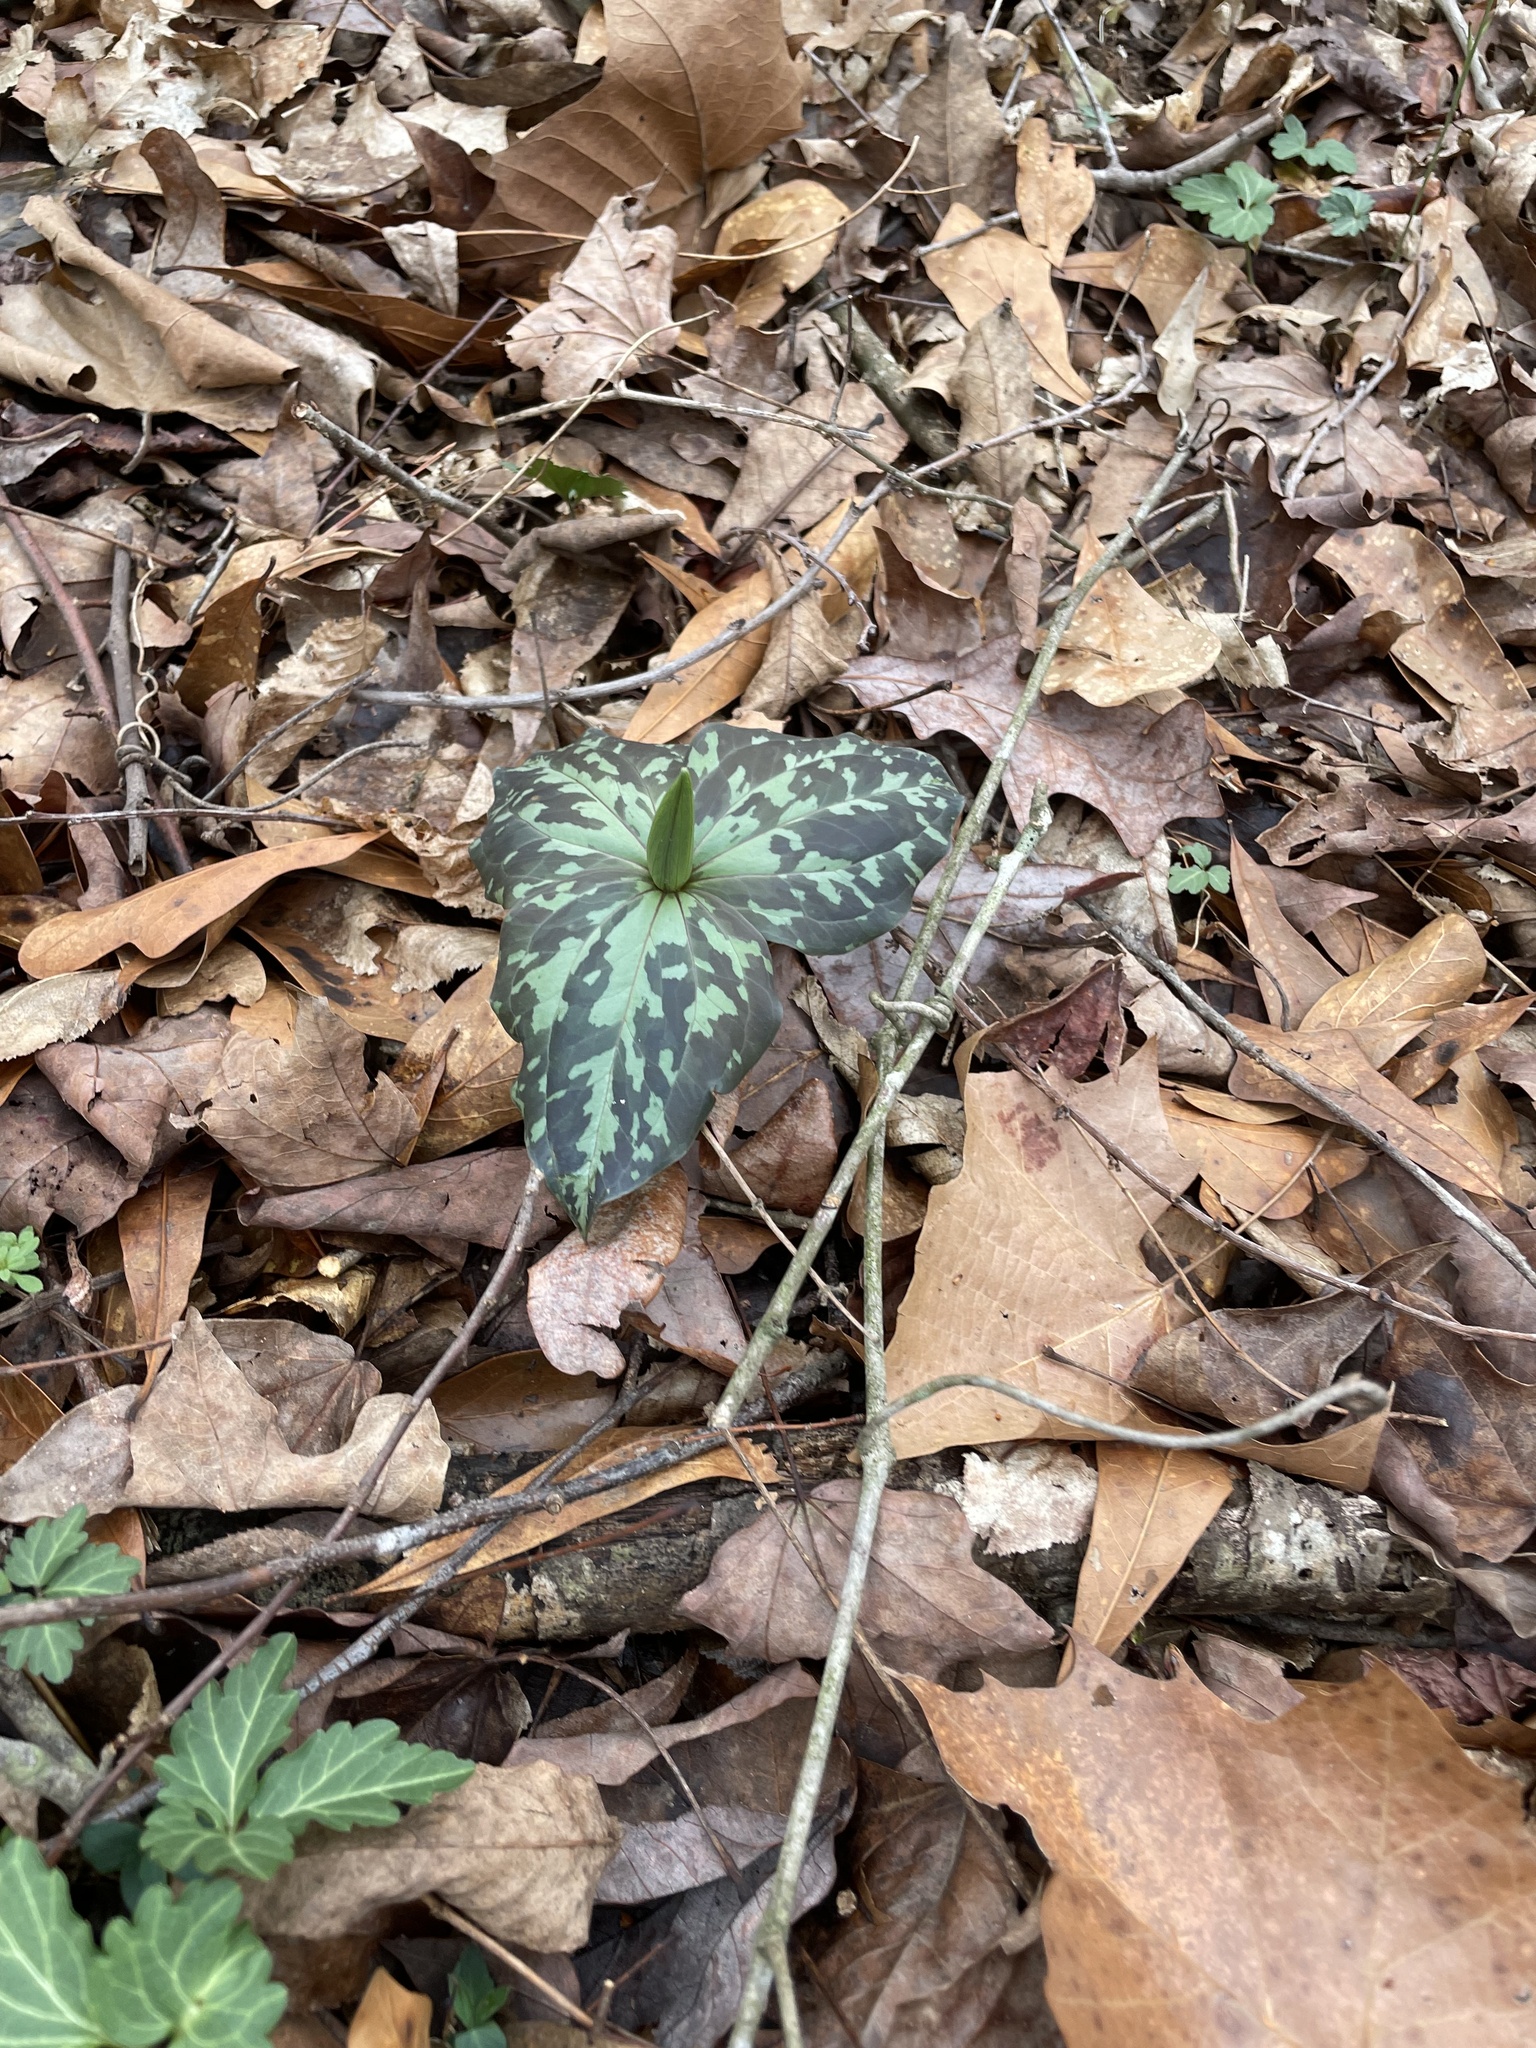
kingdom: Plantae
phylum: Tracheophyta
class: Liliopsida
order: Liliales
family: Melanthiaceae
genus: Trillium
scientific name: Trillium cuneatum
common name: Cuneate trillium
